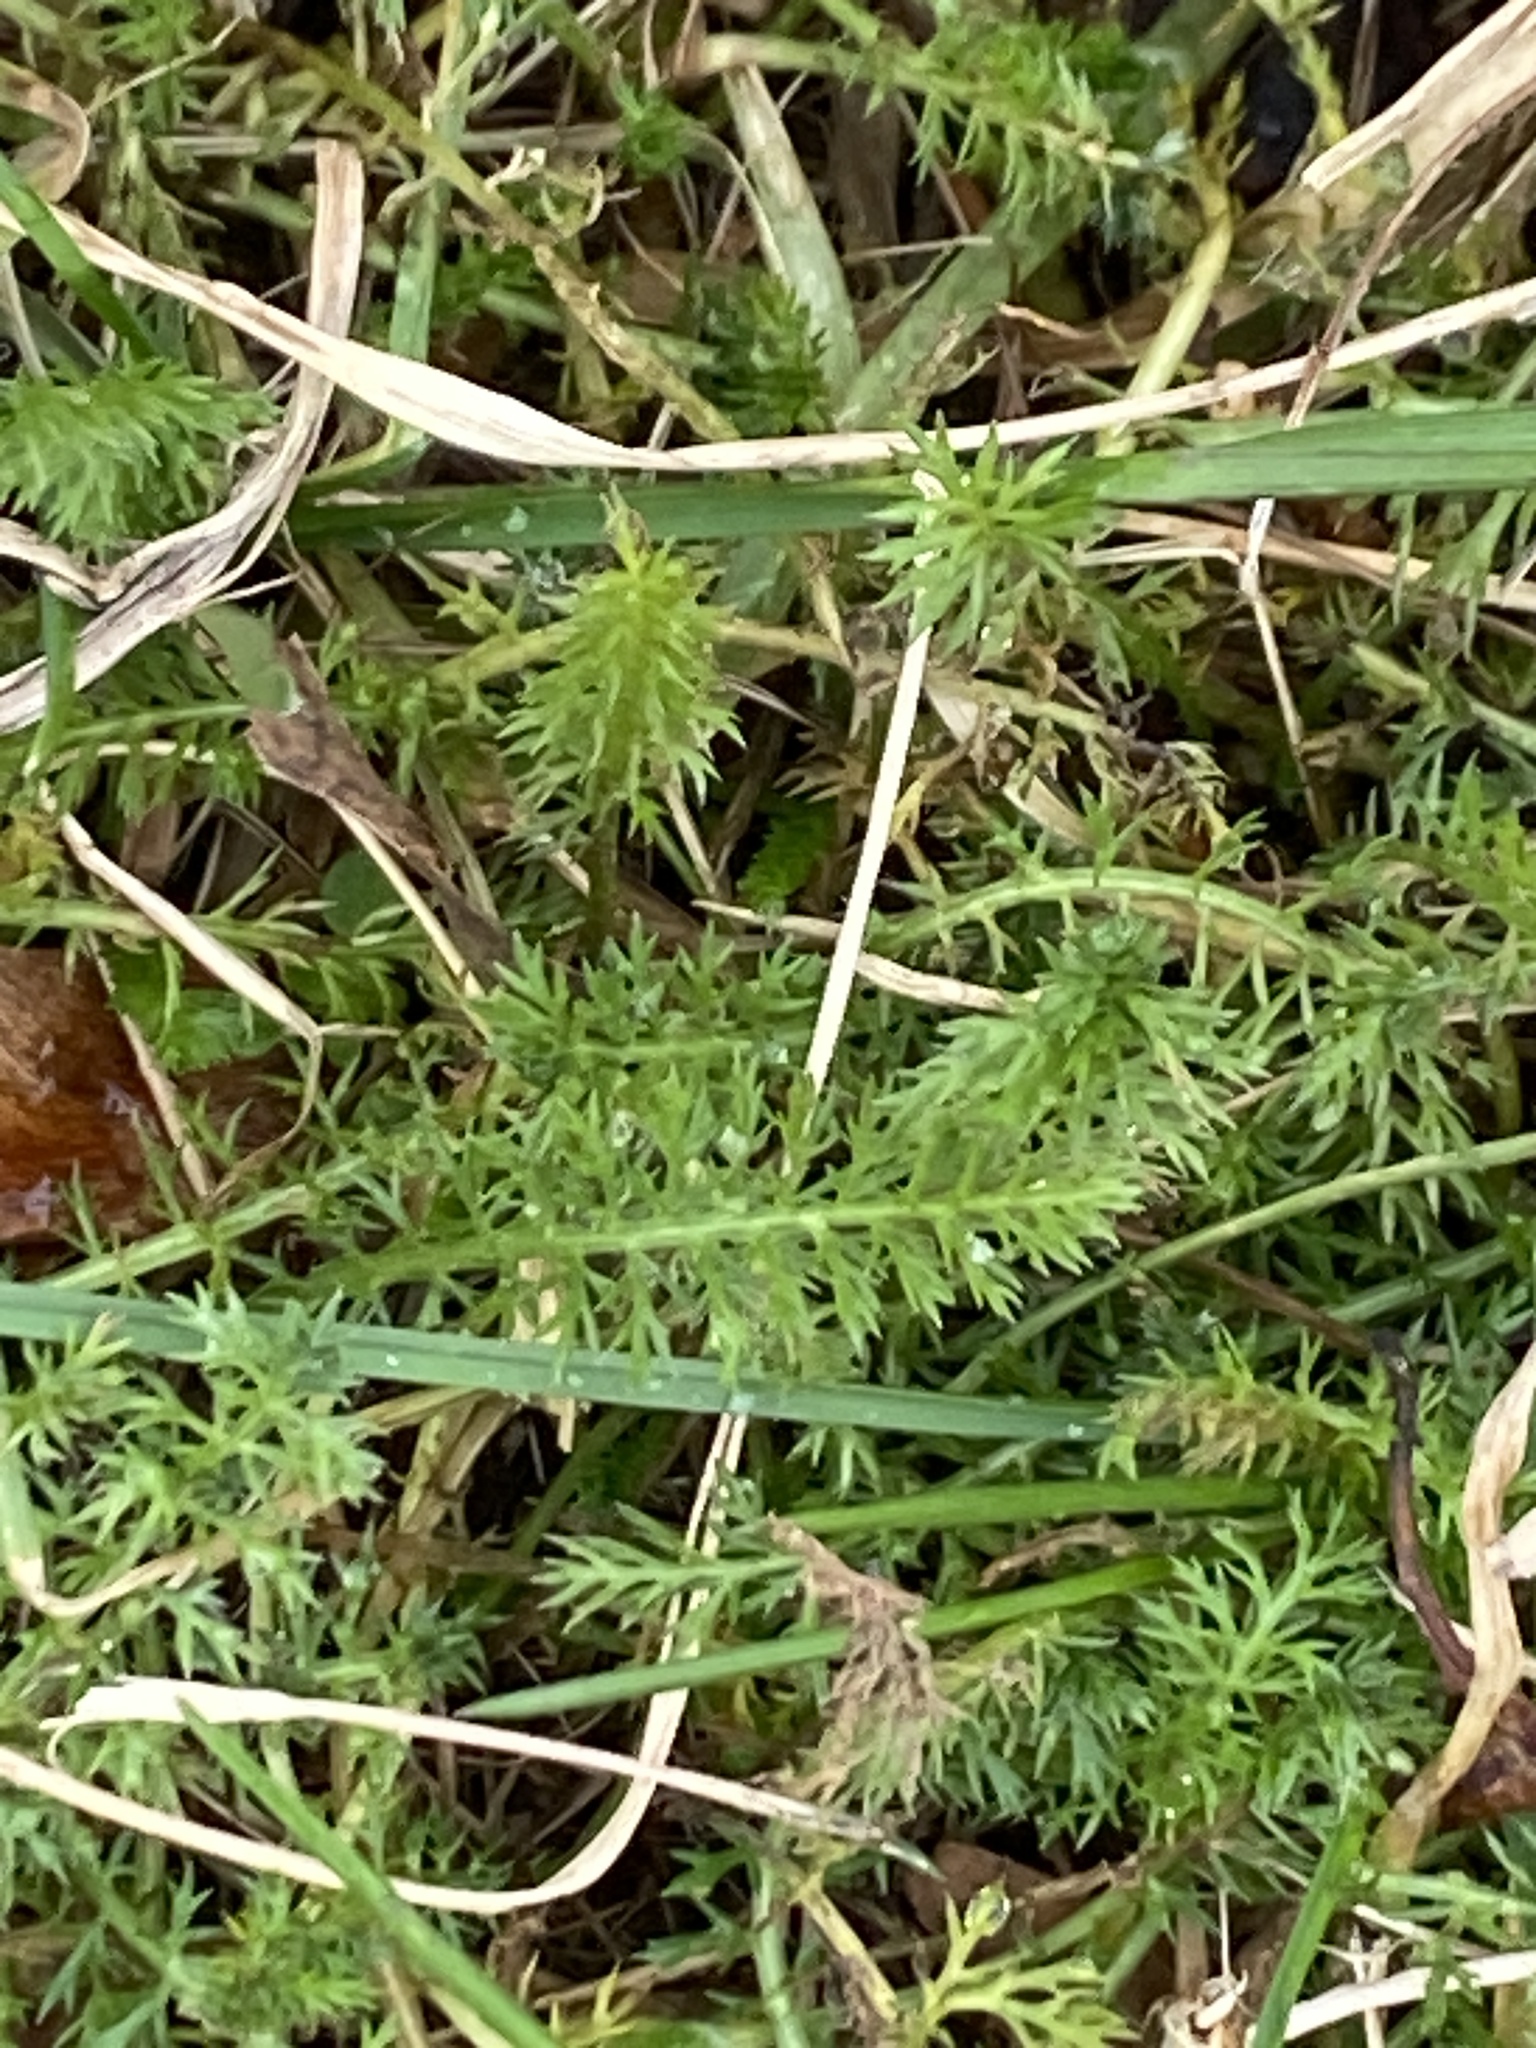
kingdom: Plantae
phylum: Tracheophyta
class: Magnoliopsida
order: Asterales
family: Asteraceae
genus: Achillea
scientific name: Achillea millefolium
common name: Yarrow
